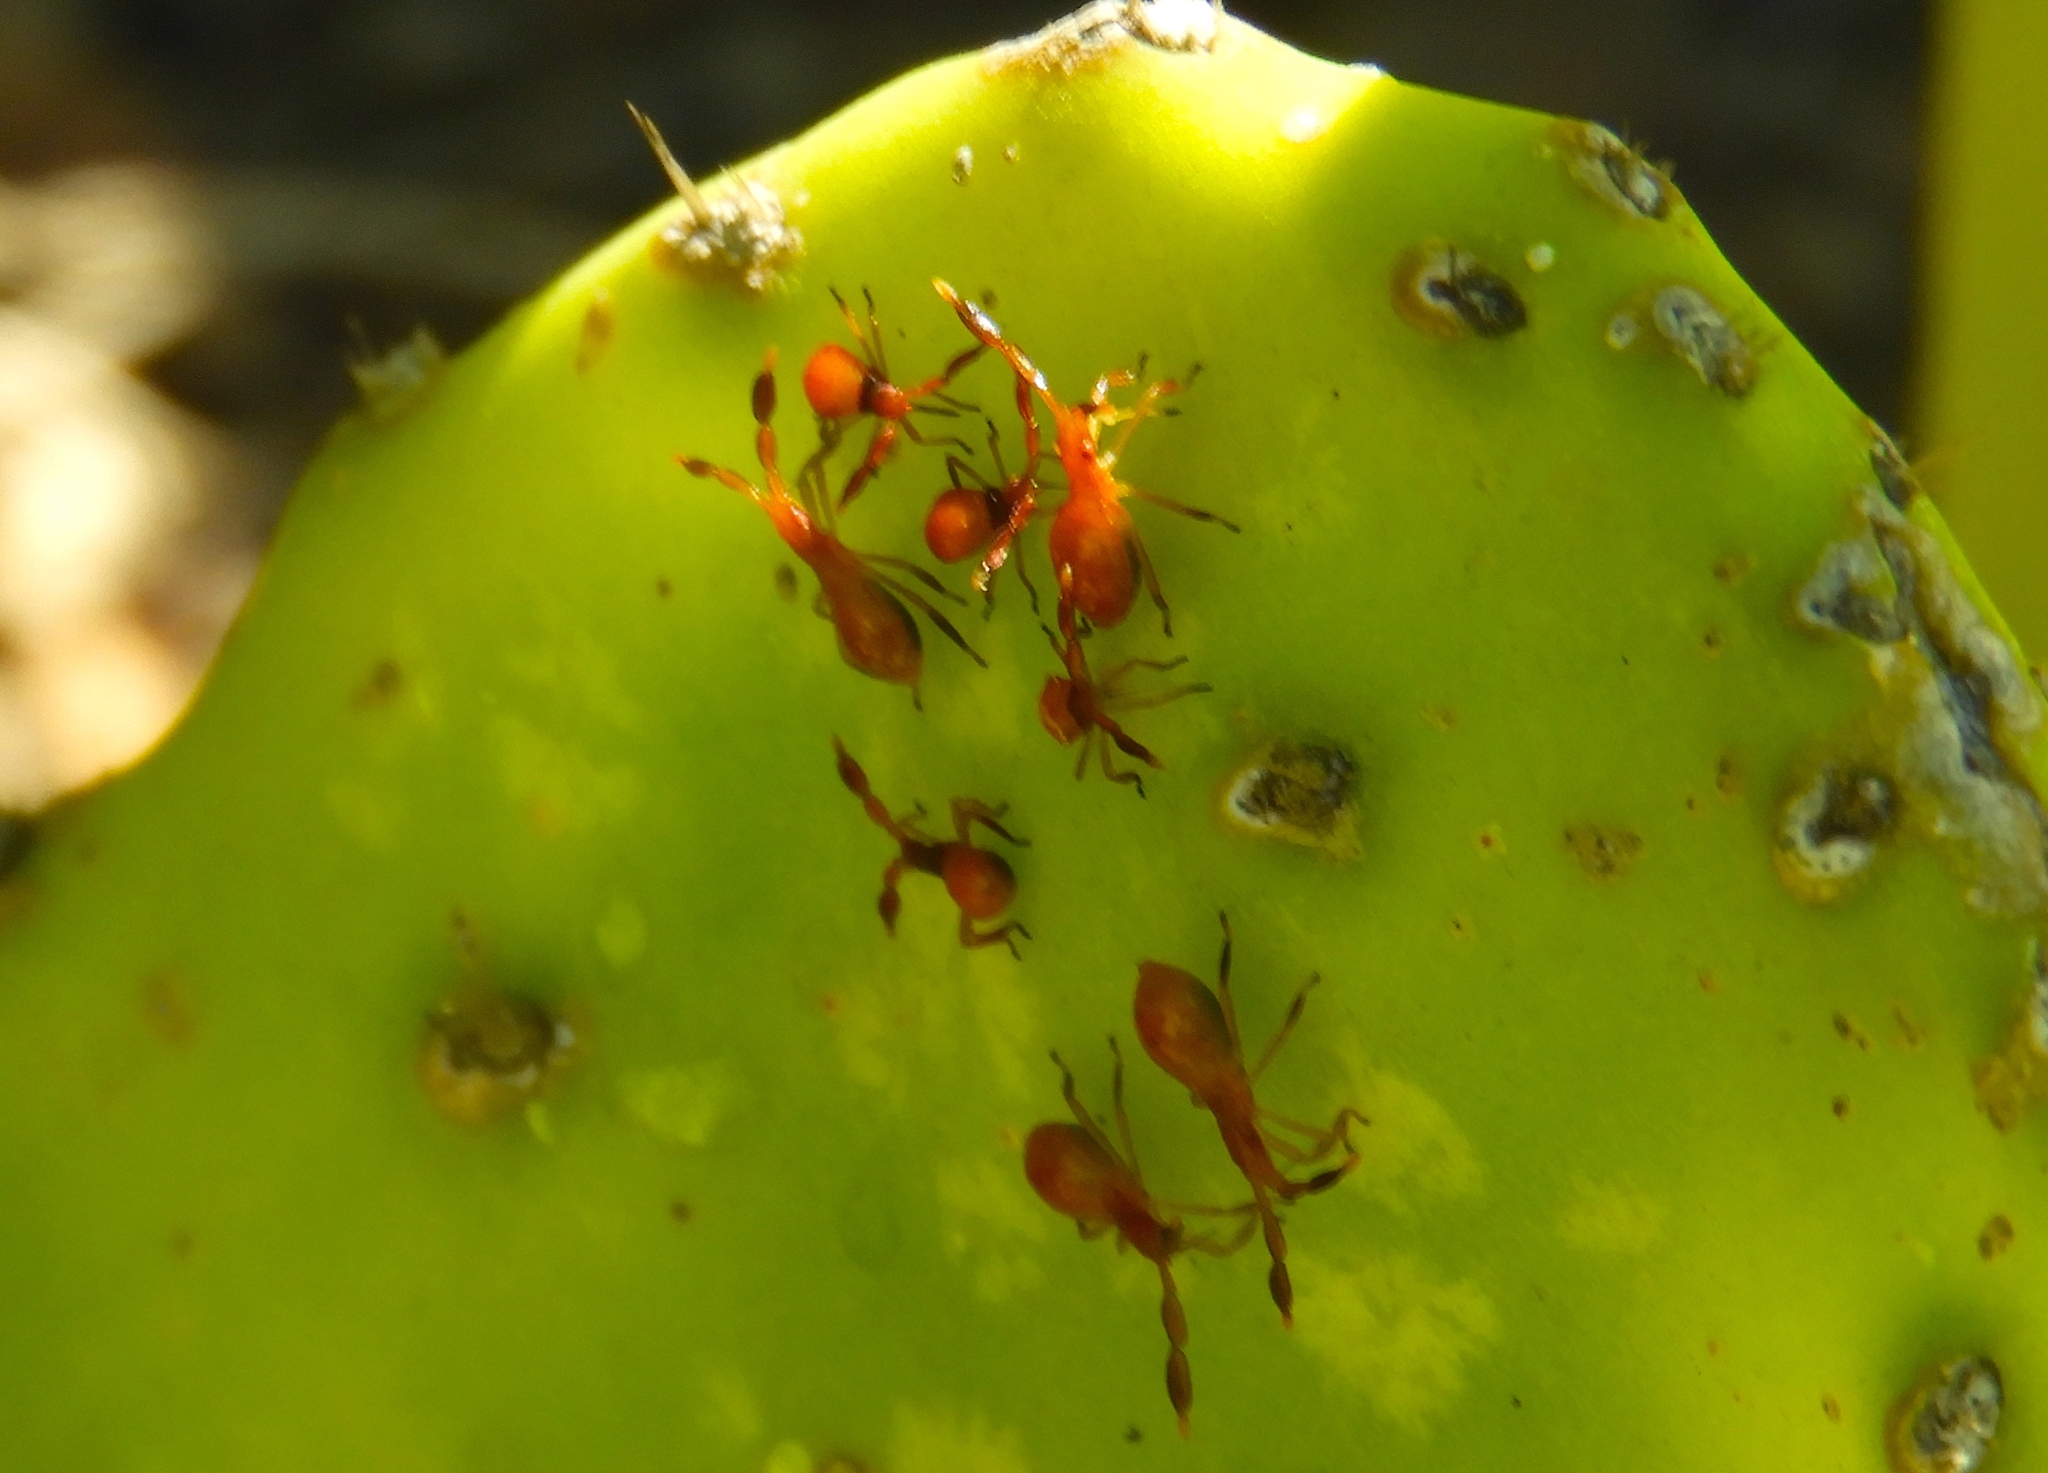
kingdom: Animalia
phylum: Arthropoda
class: Insecta
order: Hemiptera
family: Coreidae
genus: Chelinidea
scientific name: Chelinidea vittiger
